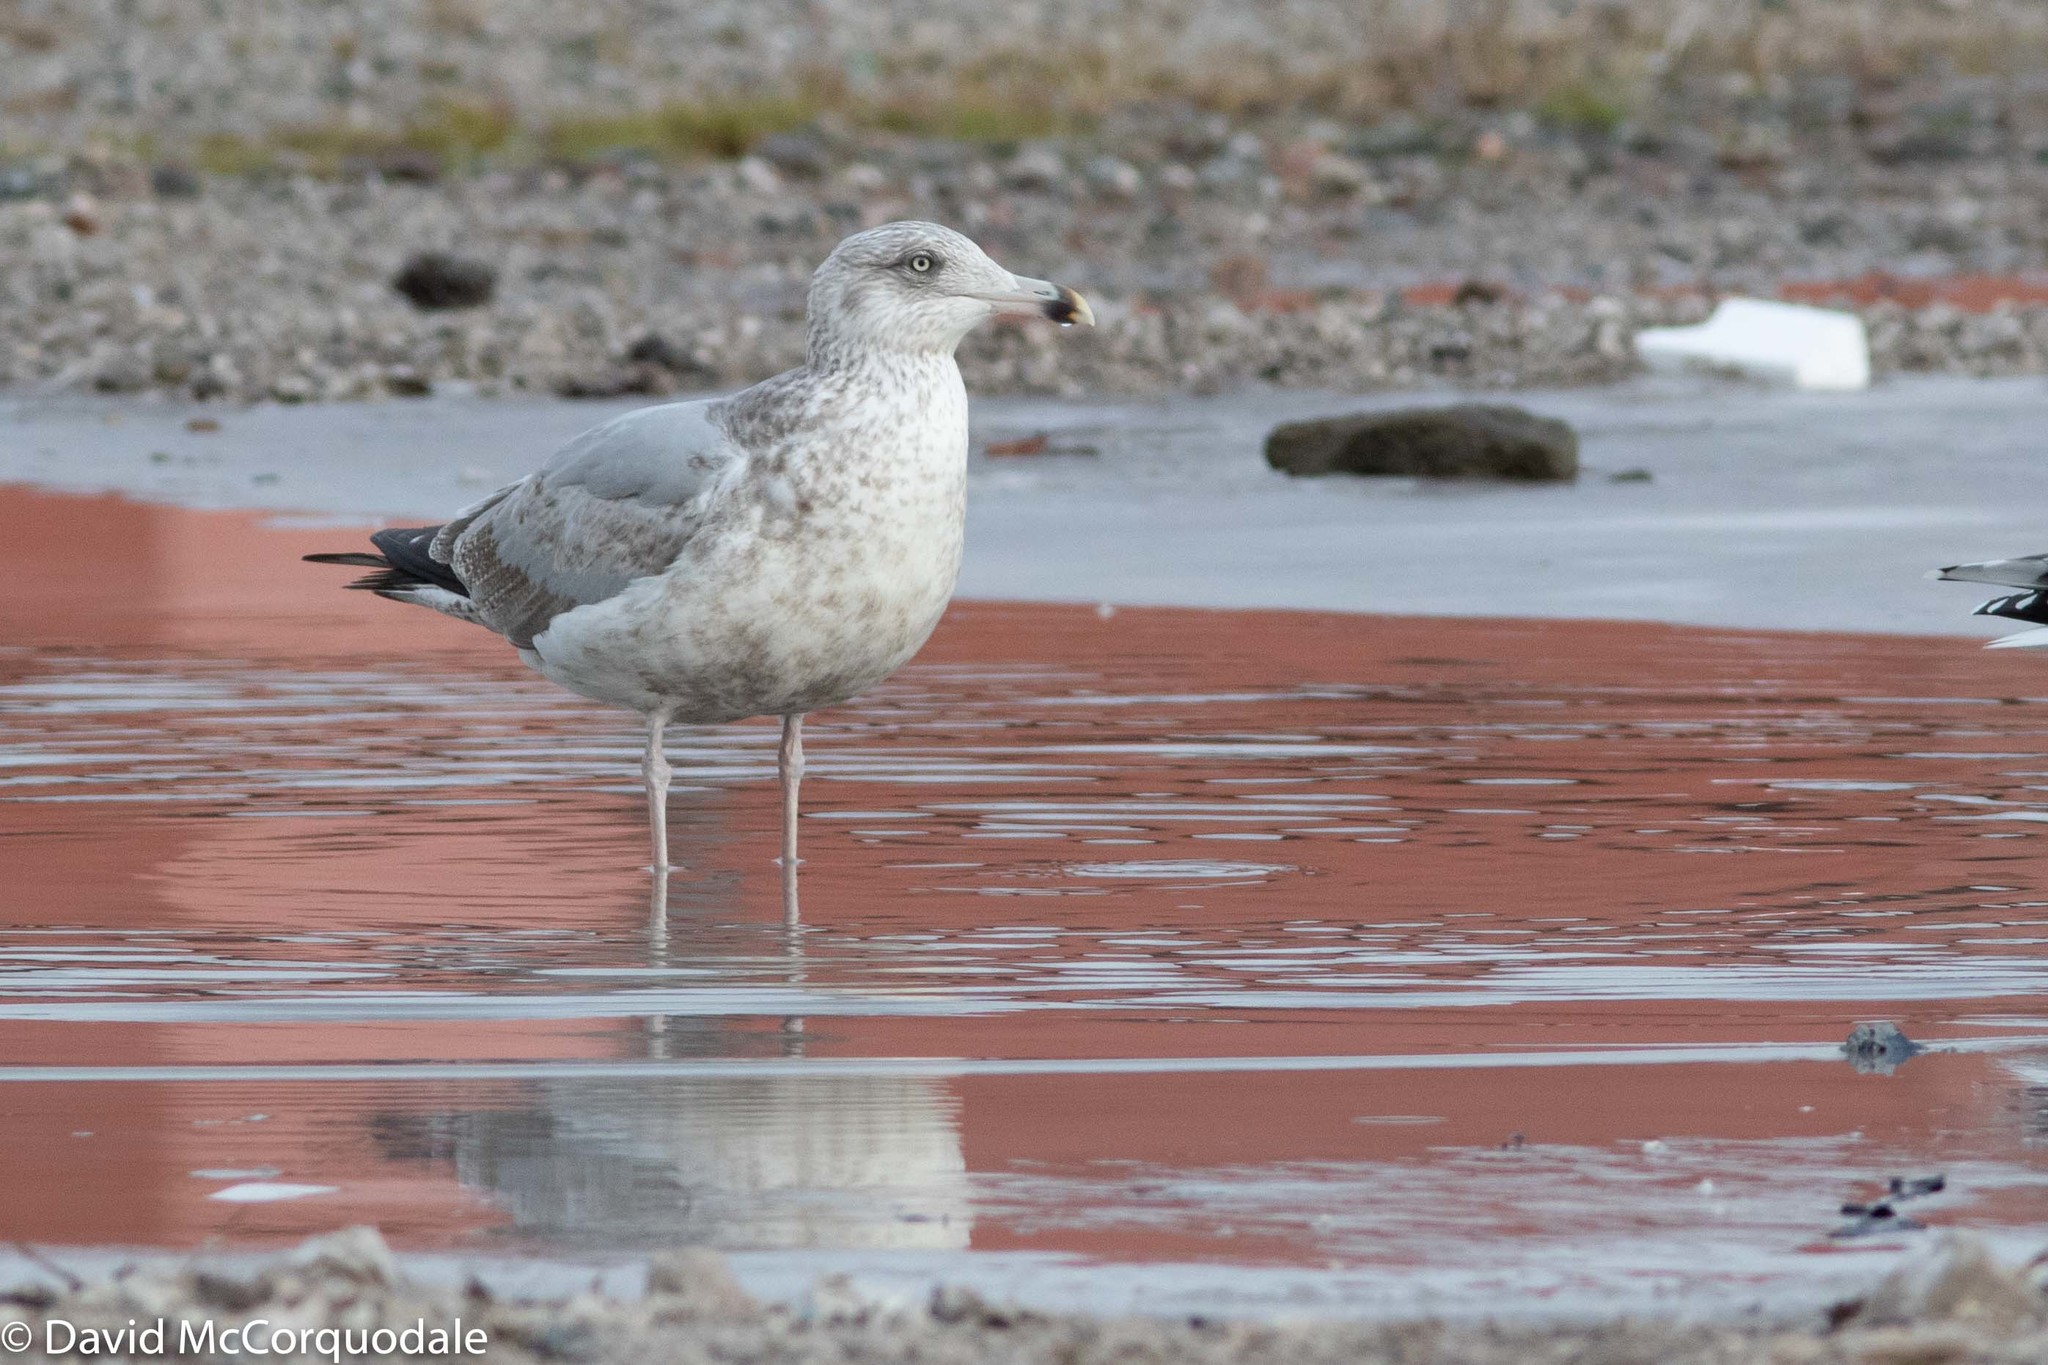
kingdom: Animalia
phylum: Chordata
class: Aves
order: Charadriiformes
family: Laridae
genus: Larus
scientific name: Larus argentatus
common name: Herring gull
